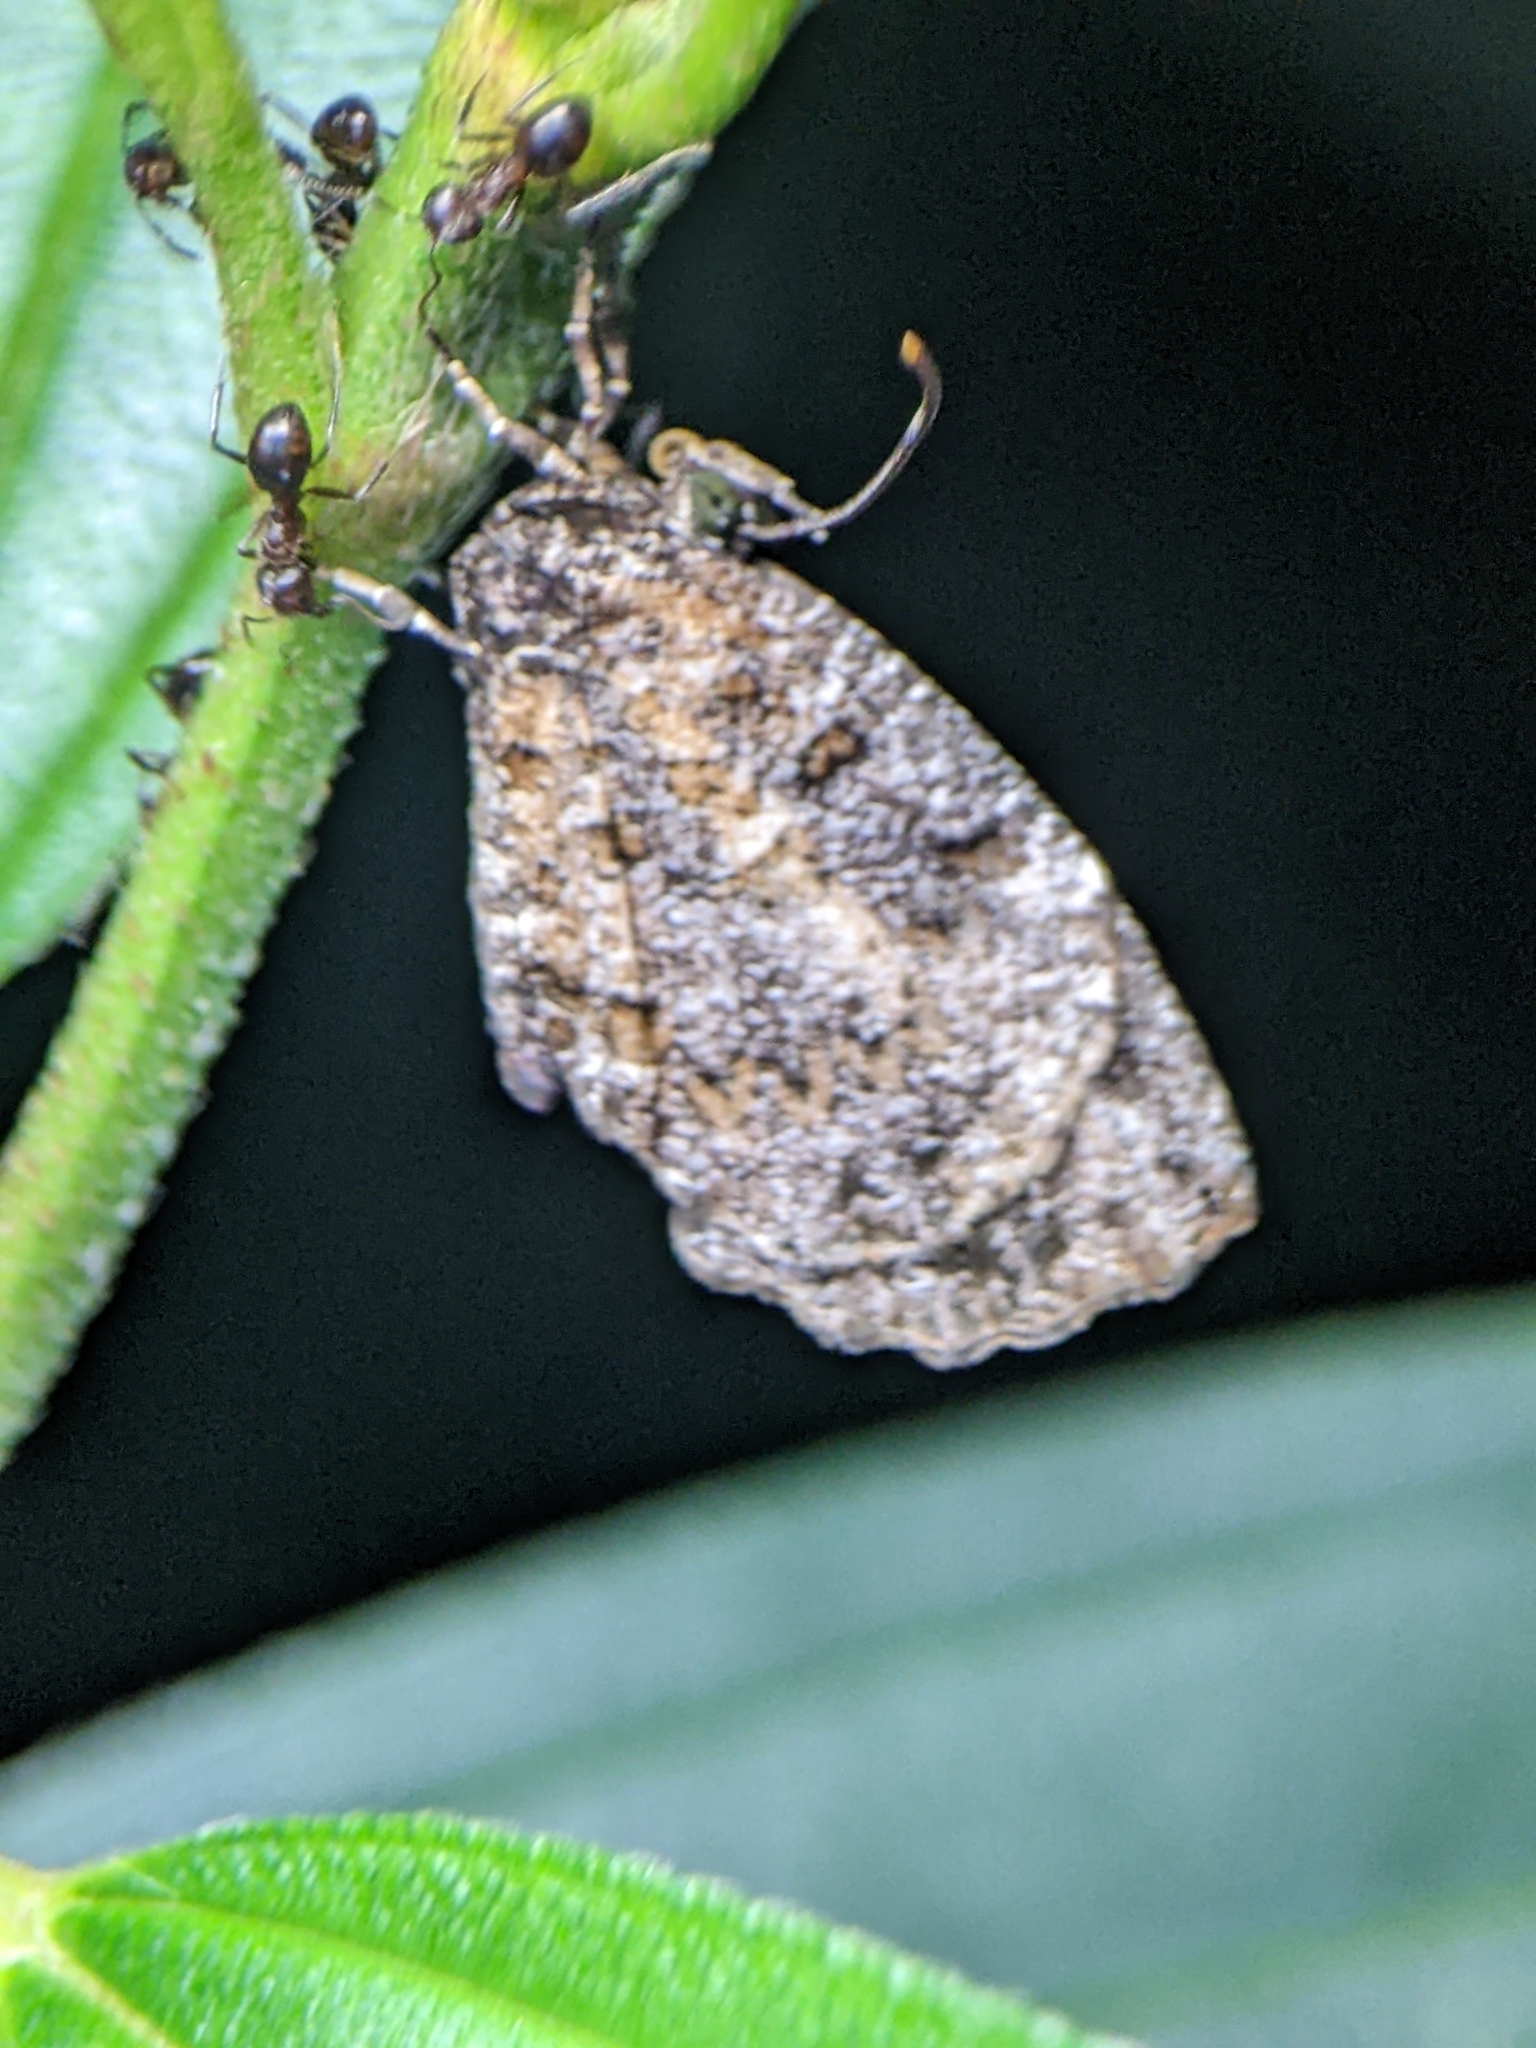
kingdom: Animalia
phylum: Arthropoda
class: Insecta
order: Lepidoptera
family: Lycaenidae
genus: Logania
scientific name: Logania marmorata
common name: Pale mottle
